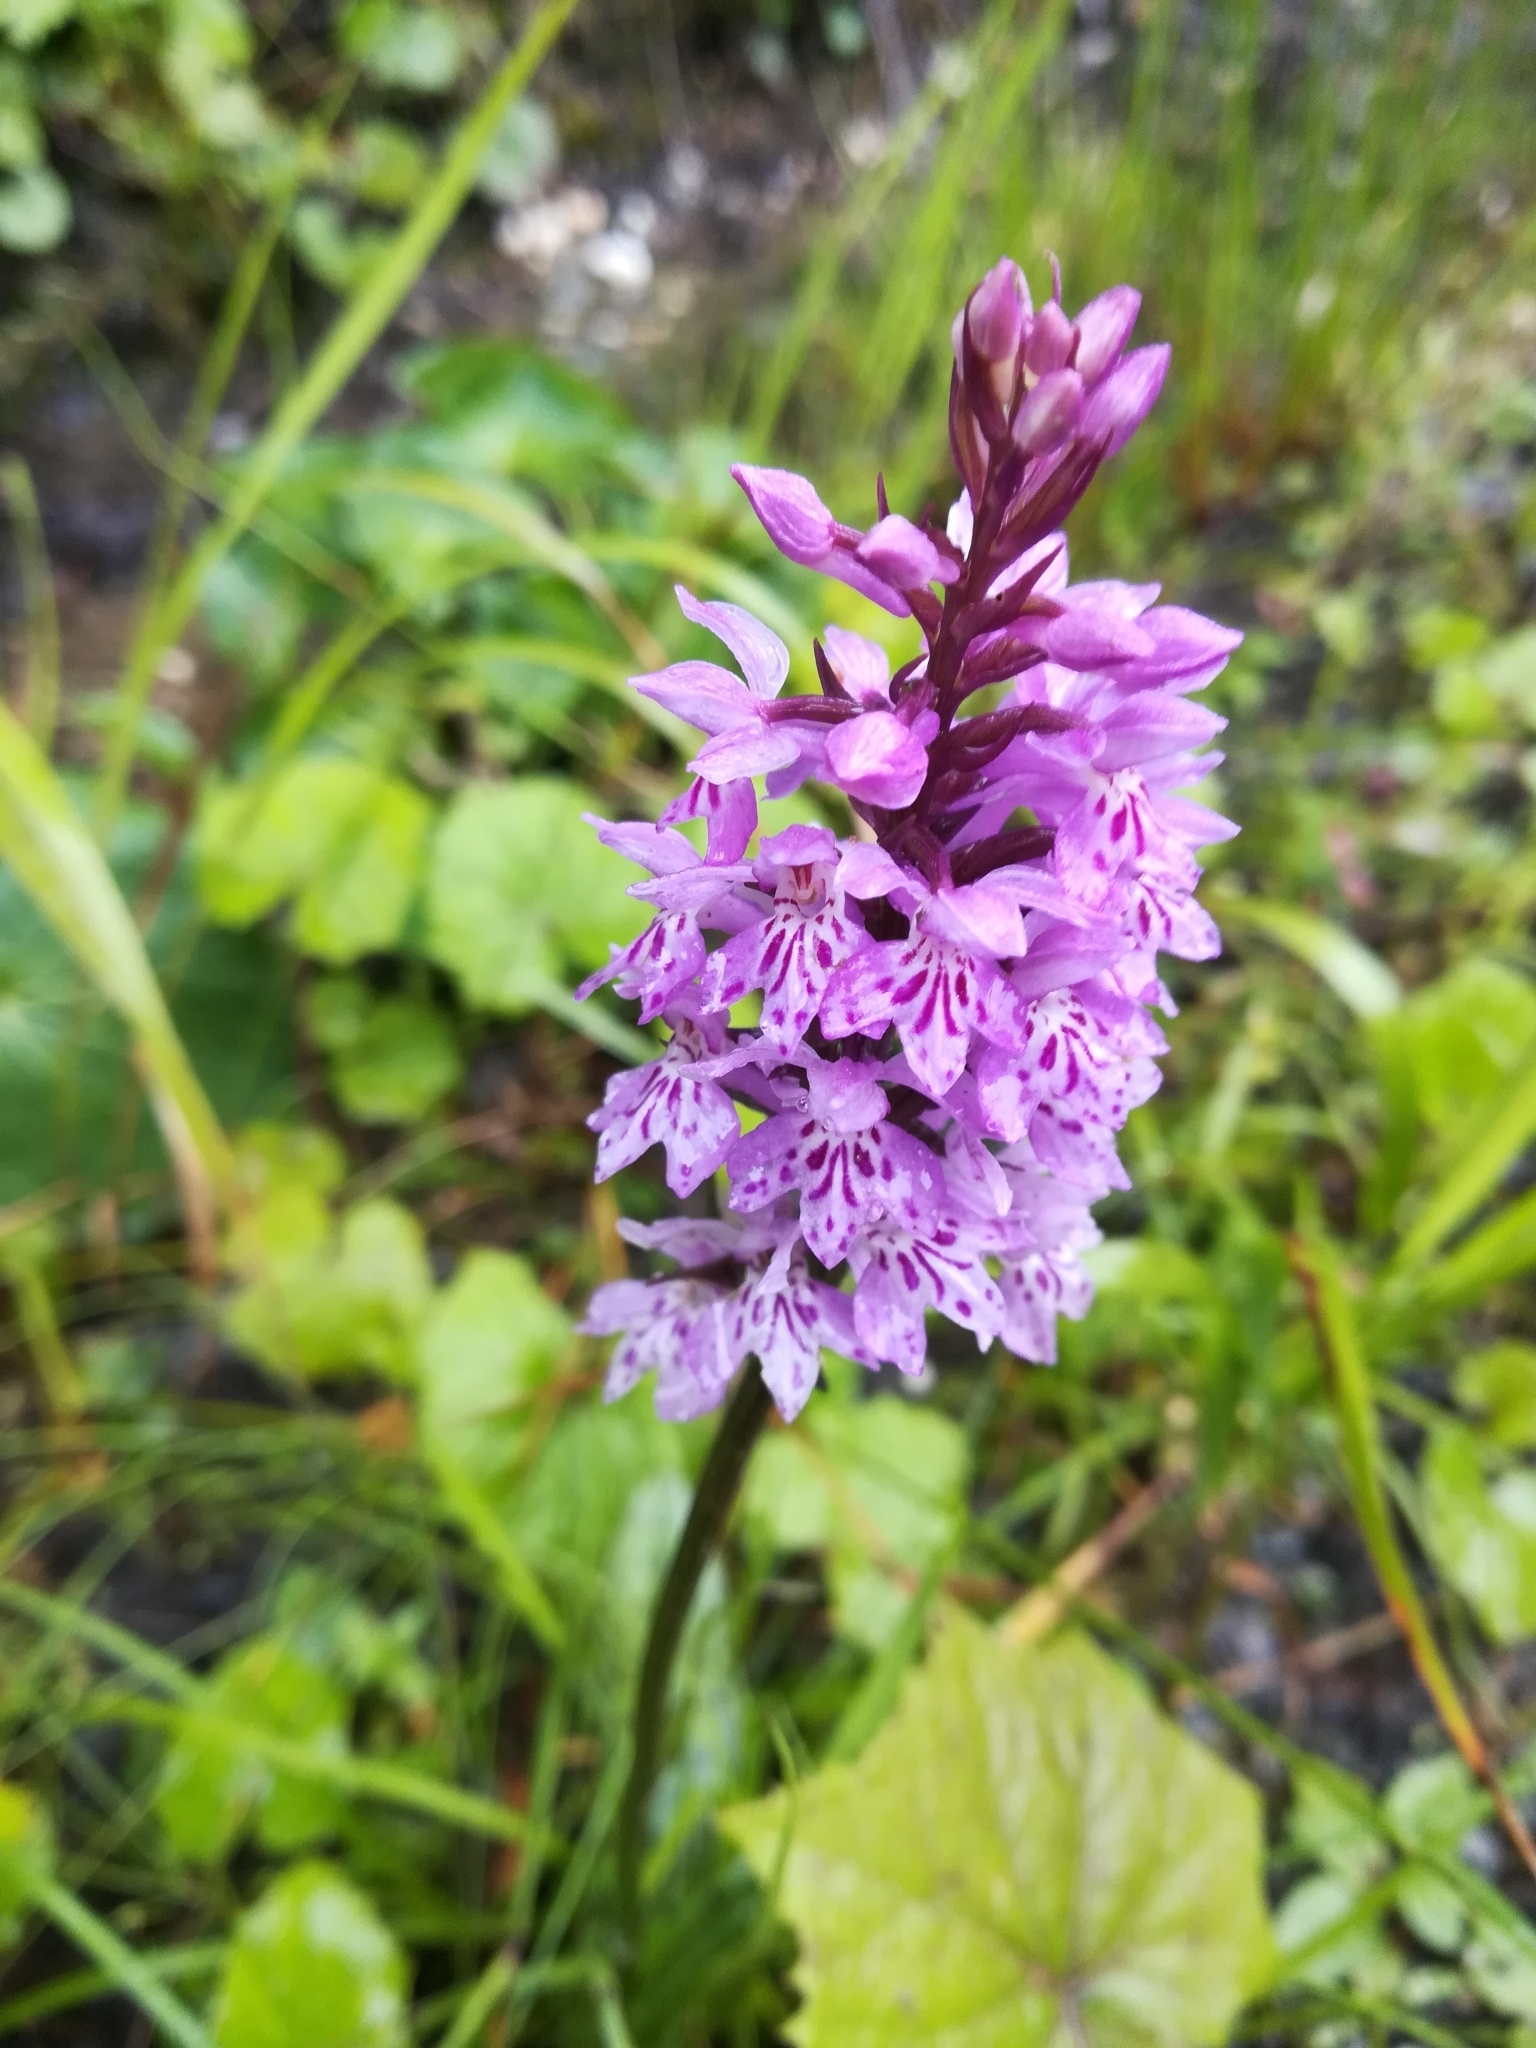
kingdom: Plantae
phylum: Tracheophyta
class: Liliopsida
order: Asparagales
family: Orchidaceae
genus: Dactylorhiza
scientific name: Dactylorhiza maculata
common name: Heath spotted-orchid
